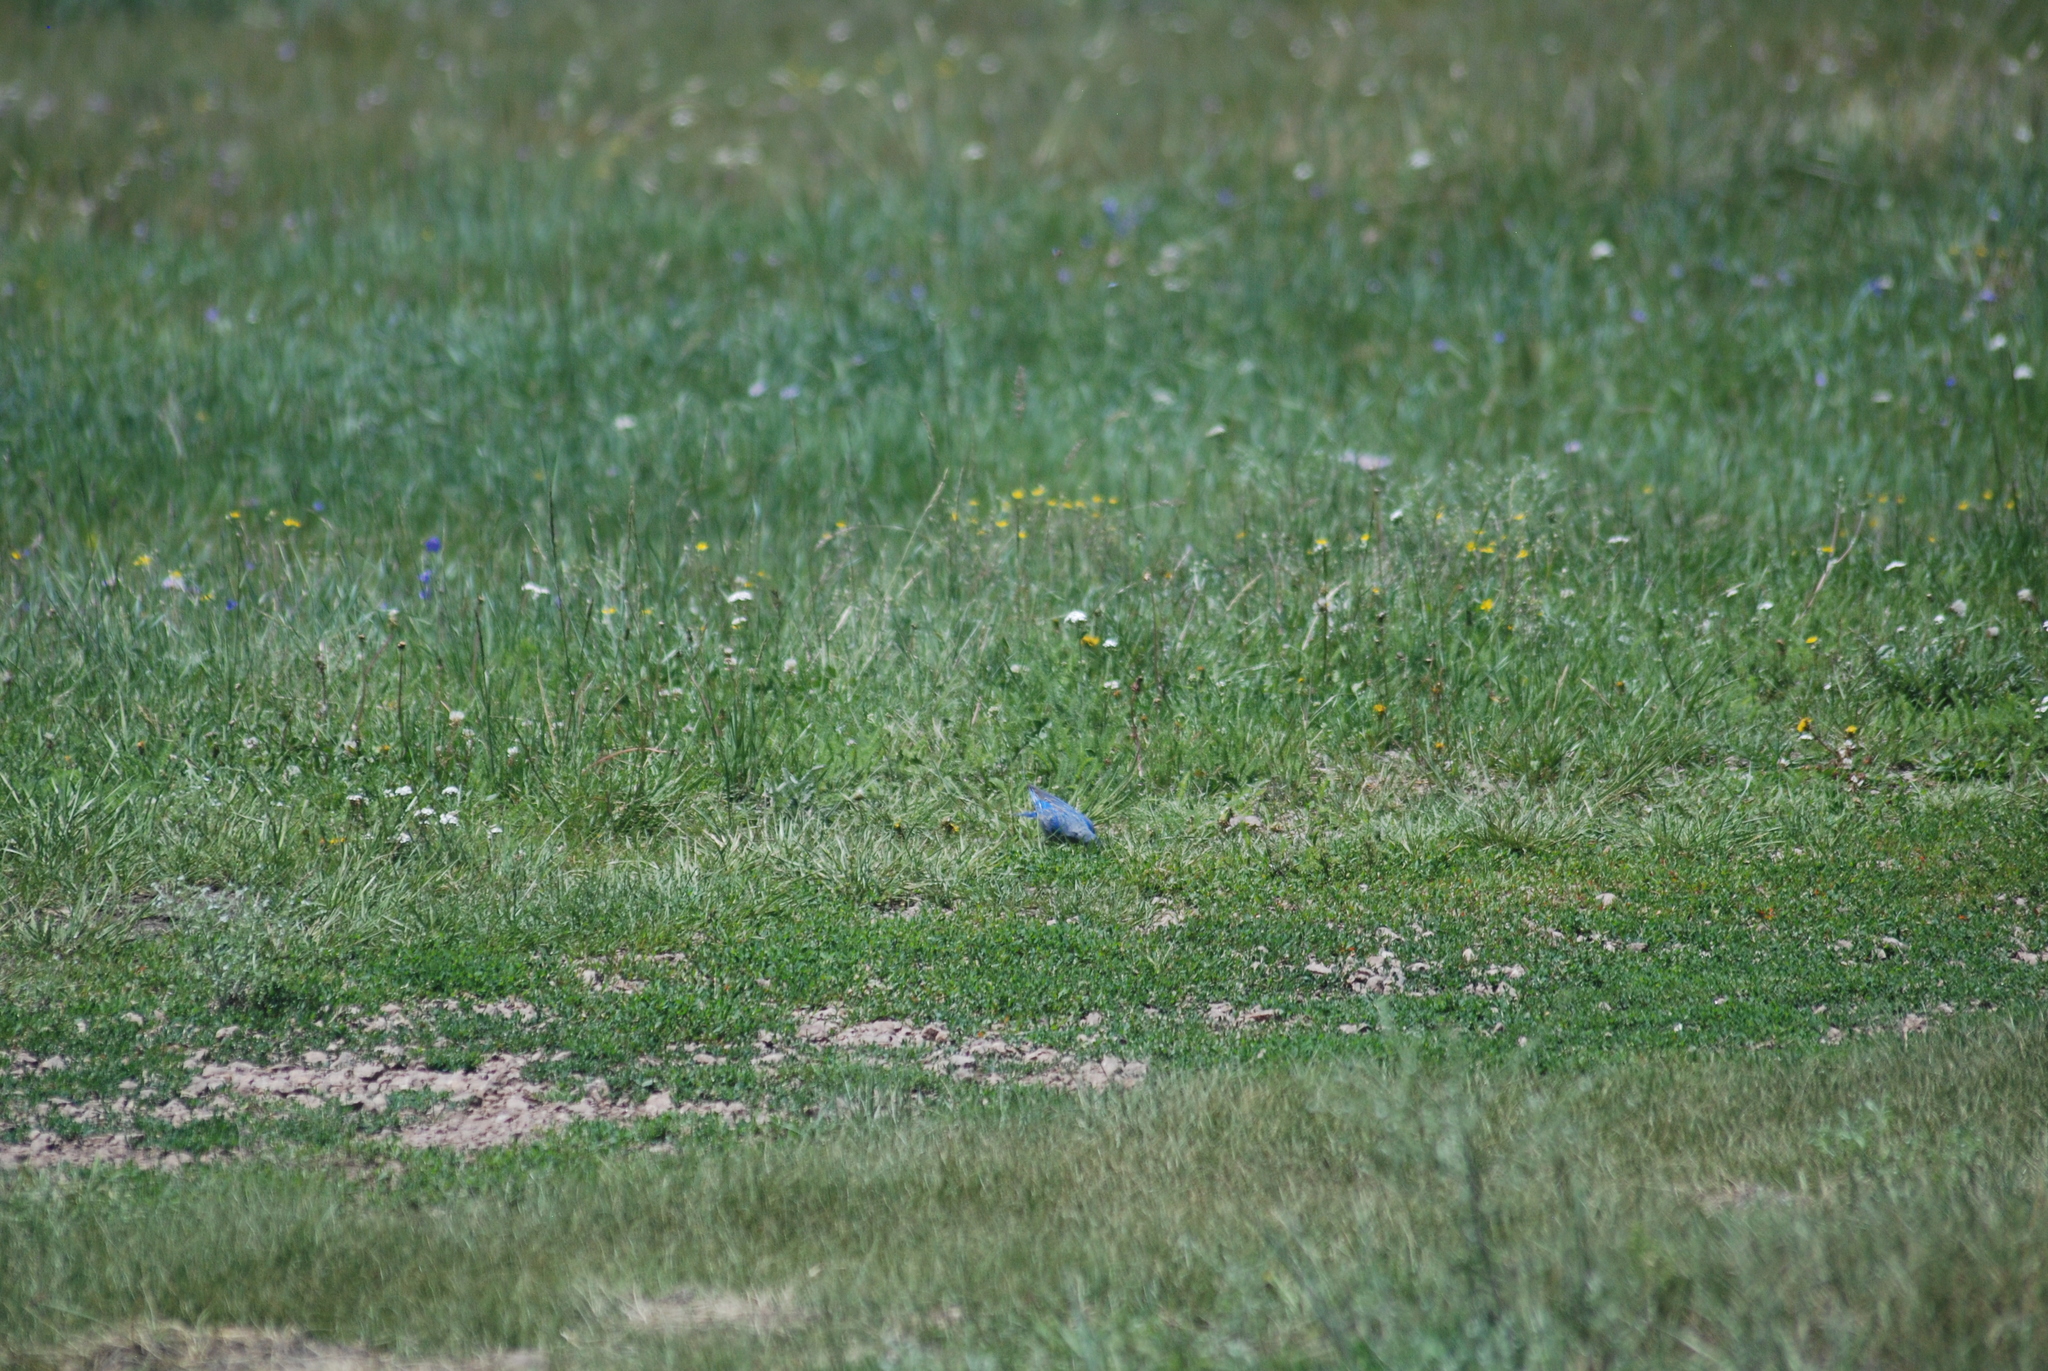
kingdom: Animalia
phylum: Chordata
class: Aves
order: Passeriformes
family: Turdidae
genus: Sialia
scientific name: Sialia currucoides
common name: Mountain bluebird
